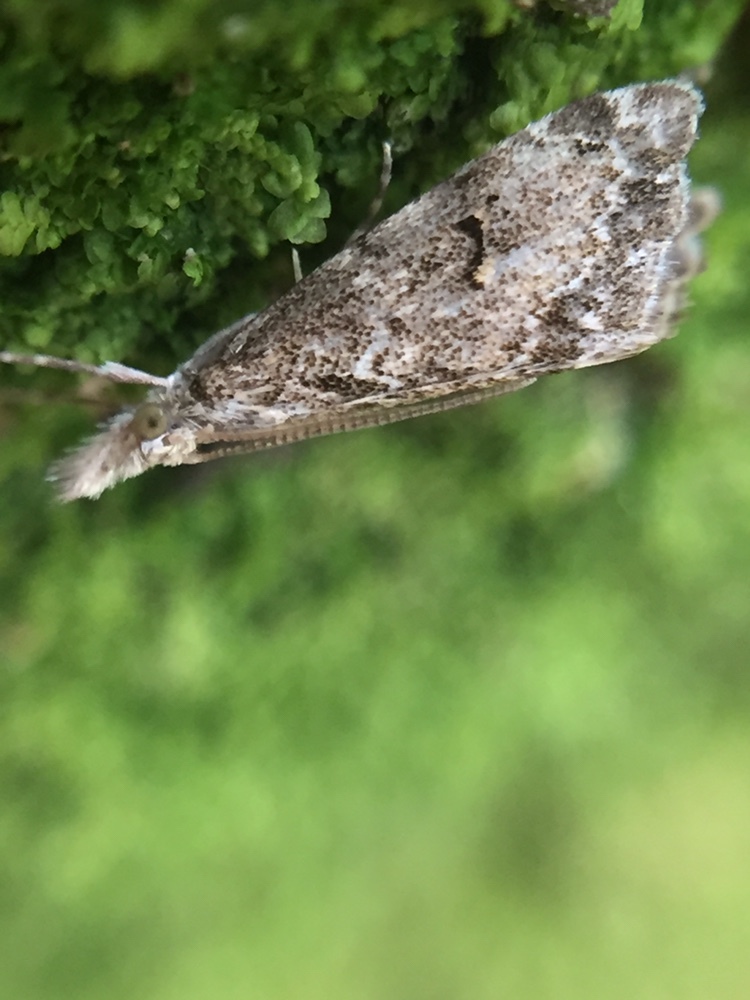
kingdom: Animalia
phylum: Arthropoda
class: Insecta
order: Lepidoptera
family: Crambidae
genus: Glaucocharis
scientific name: Glaucocharis elaina
